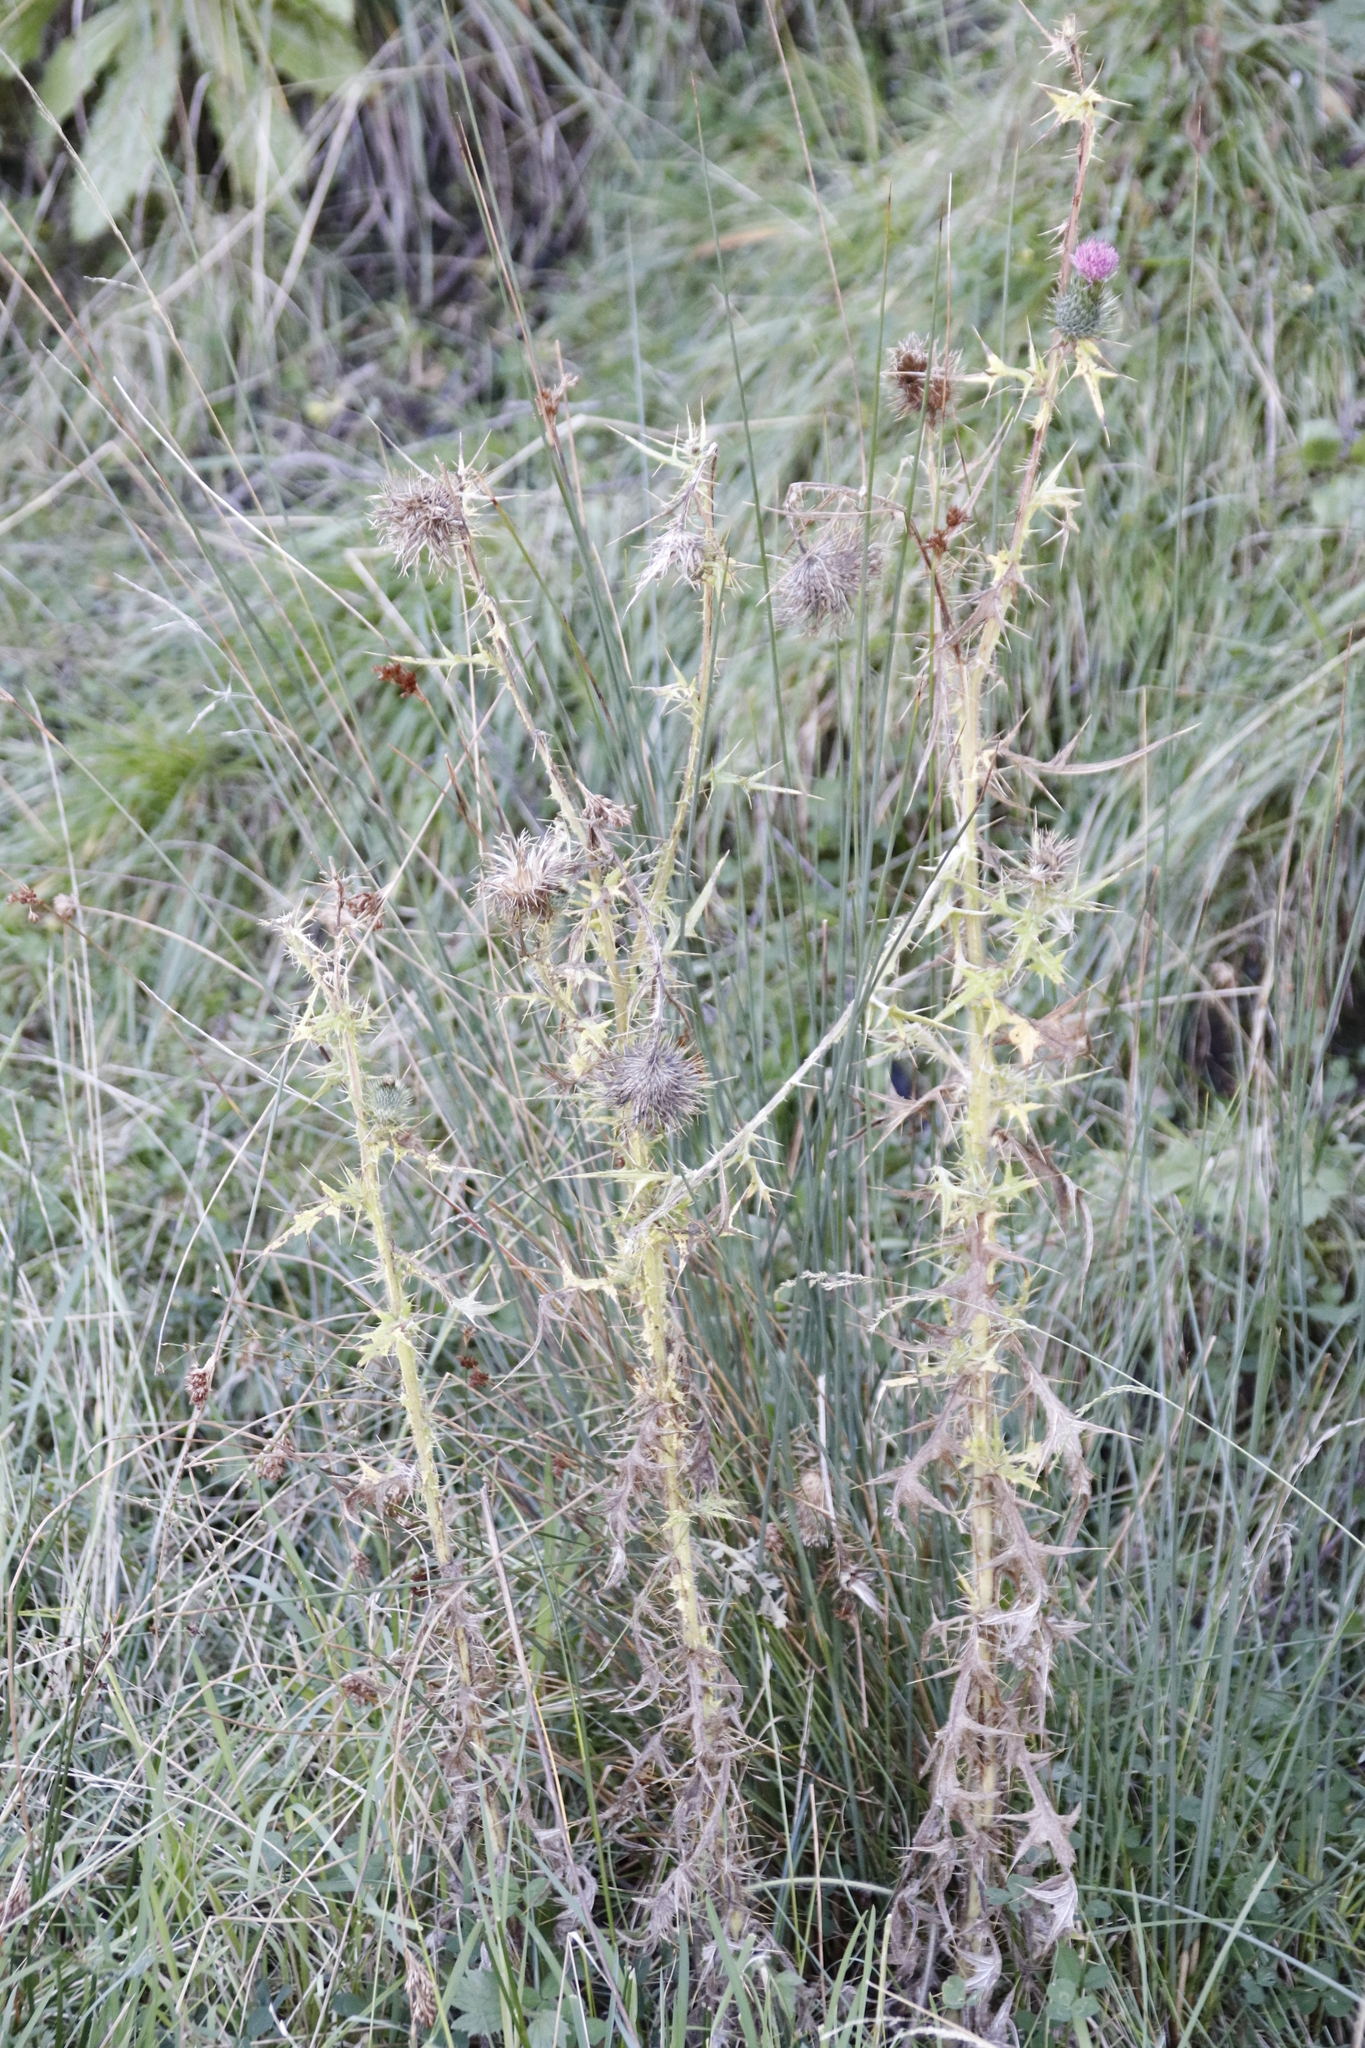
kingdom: Plantae
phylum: Tracheophyta
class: Magnoliopsida
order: Asterales
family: Asteraceae
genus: Cirsium
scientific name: Cirsium vulgare
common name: Bull thistle
